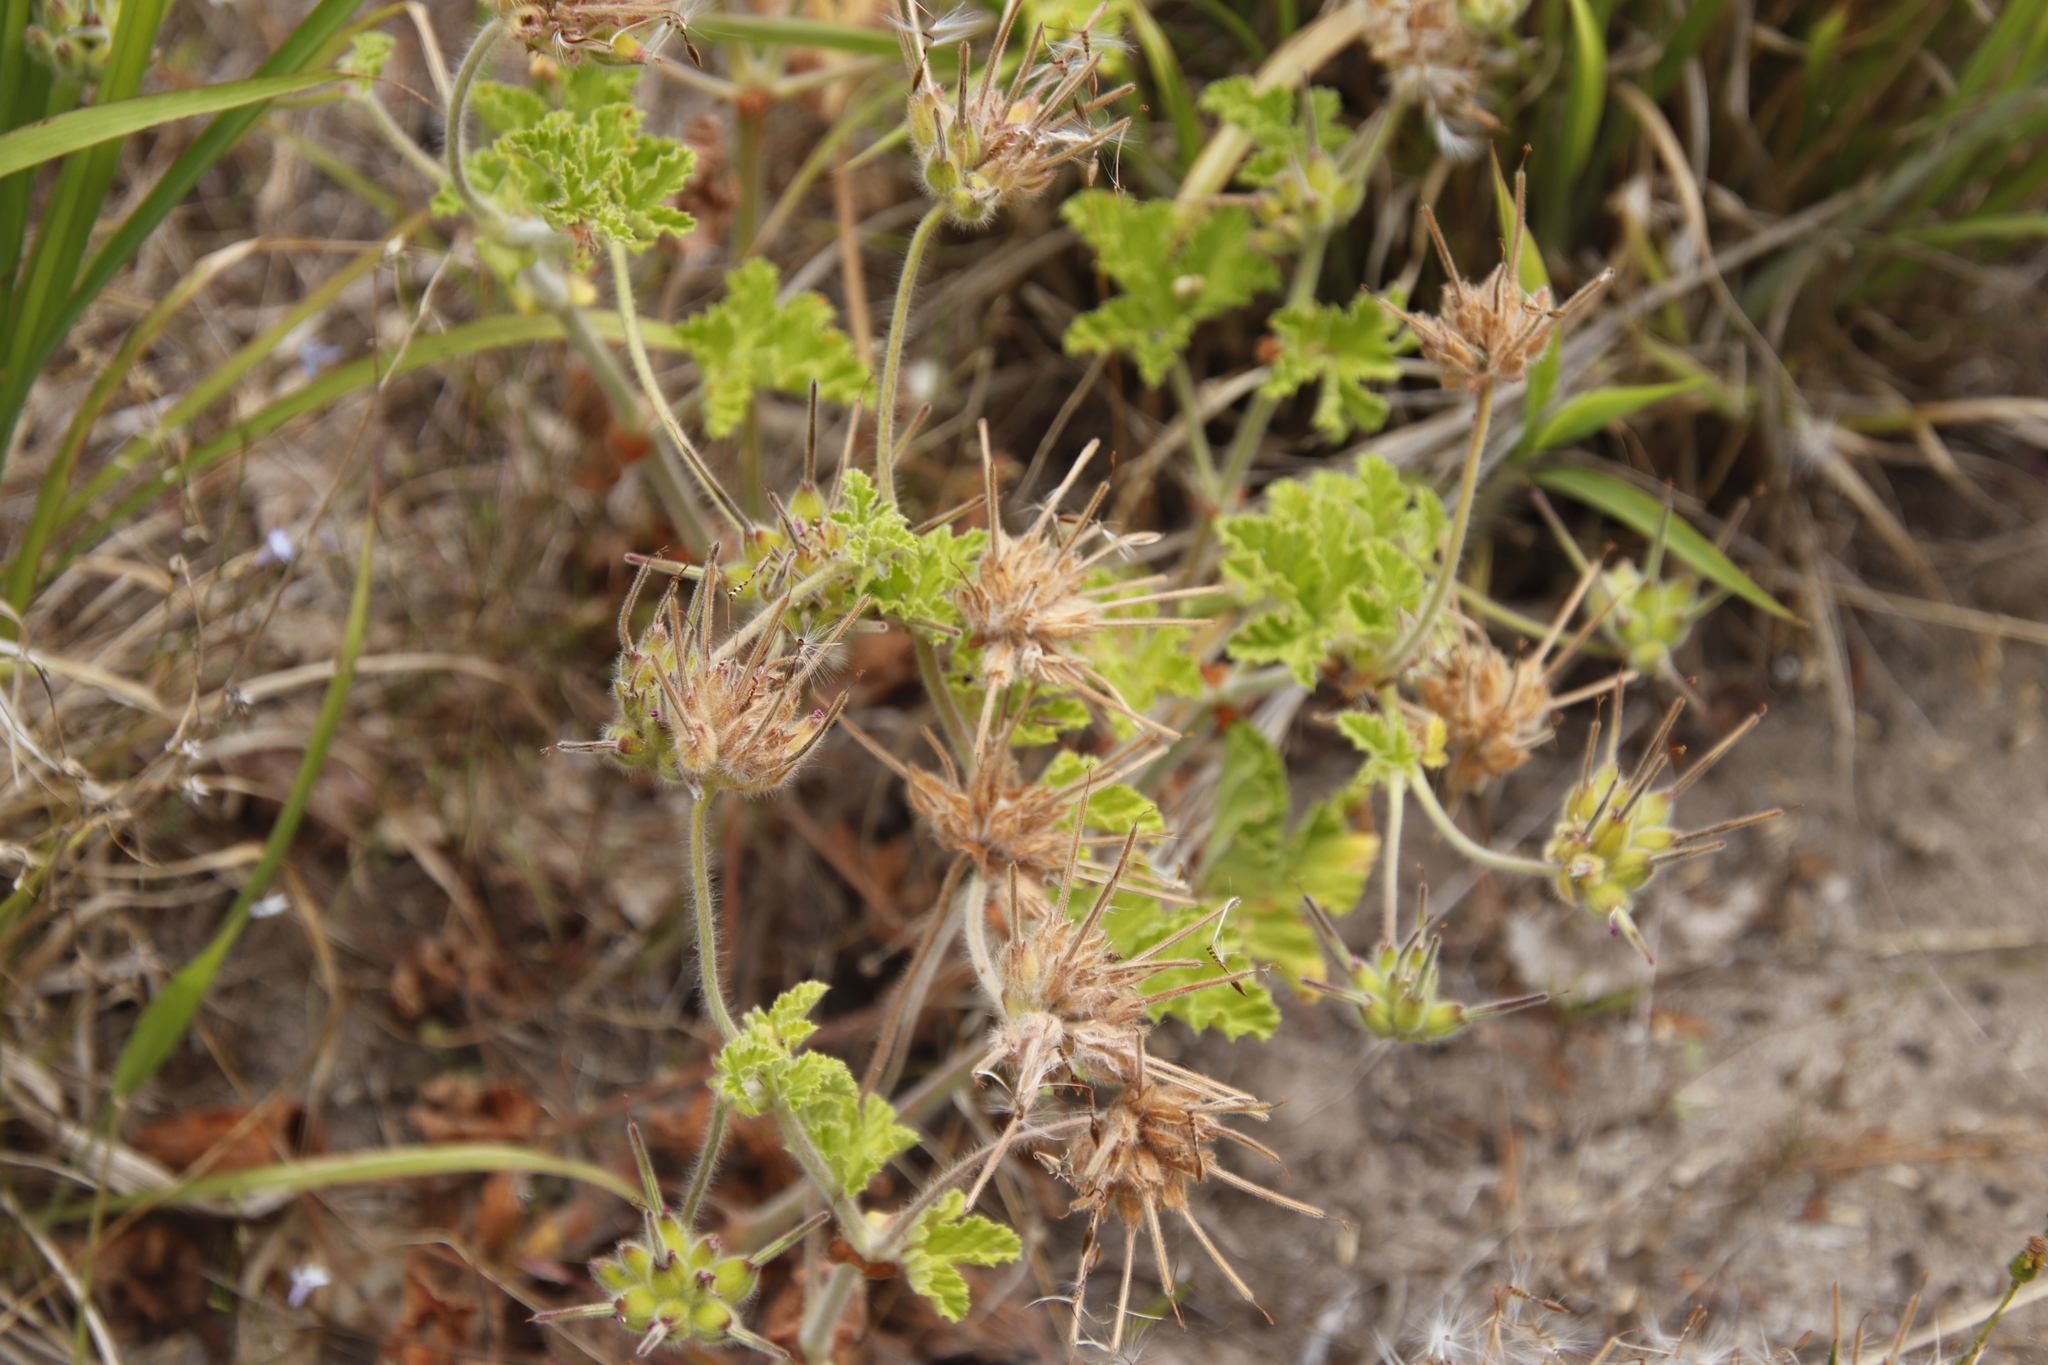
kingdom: Plantae
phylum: Tracheophyta
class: Magnoliopsida
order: Geraniales
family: Geraniaceae
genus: Pelargonium
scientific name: Pelargonium capitatum
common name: Rose scented geranium
